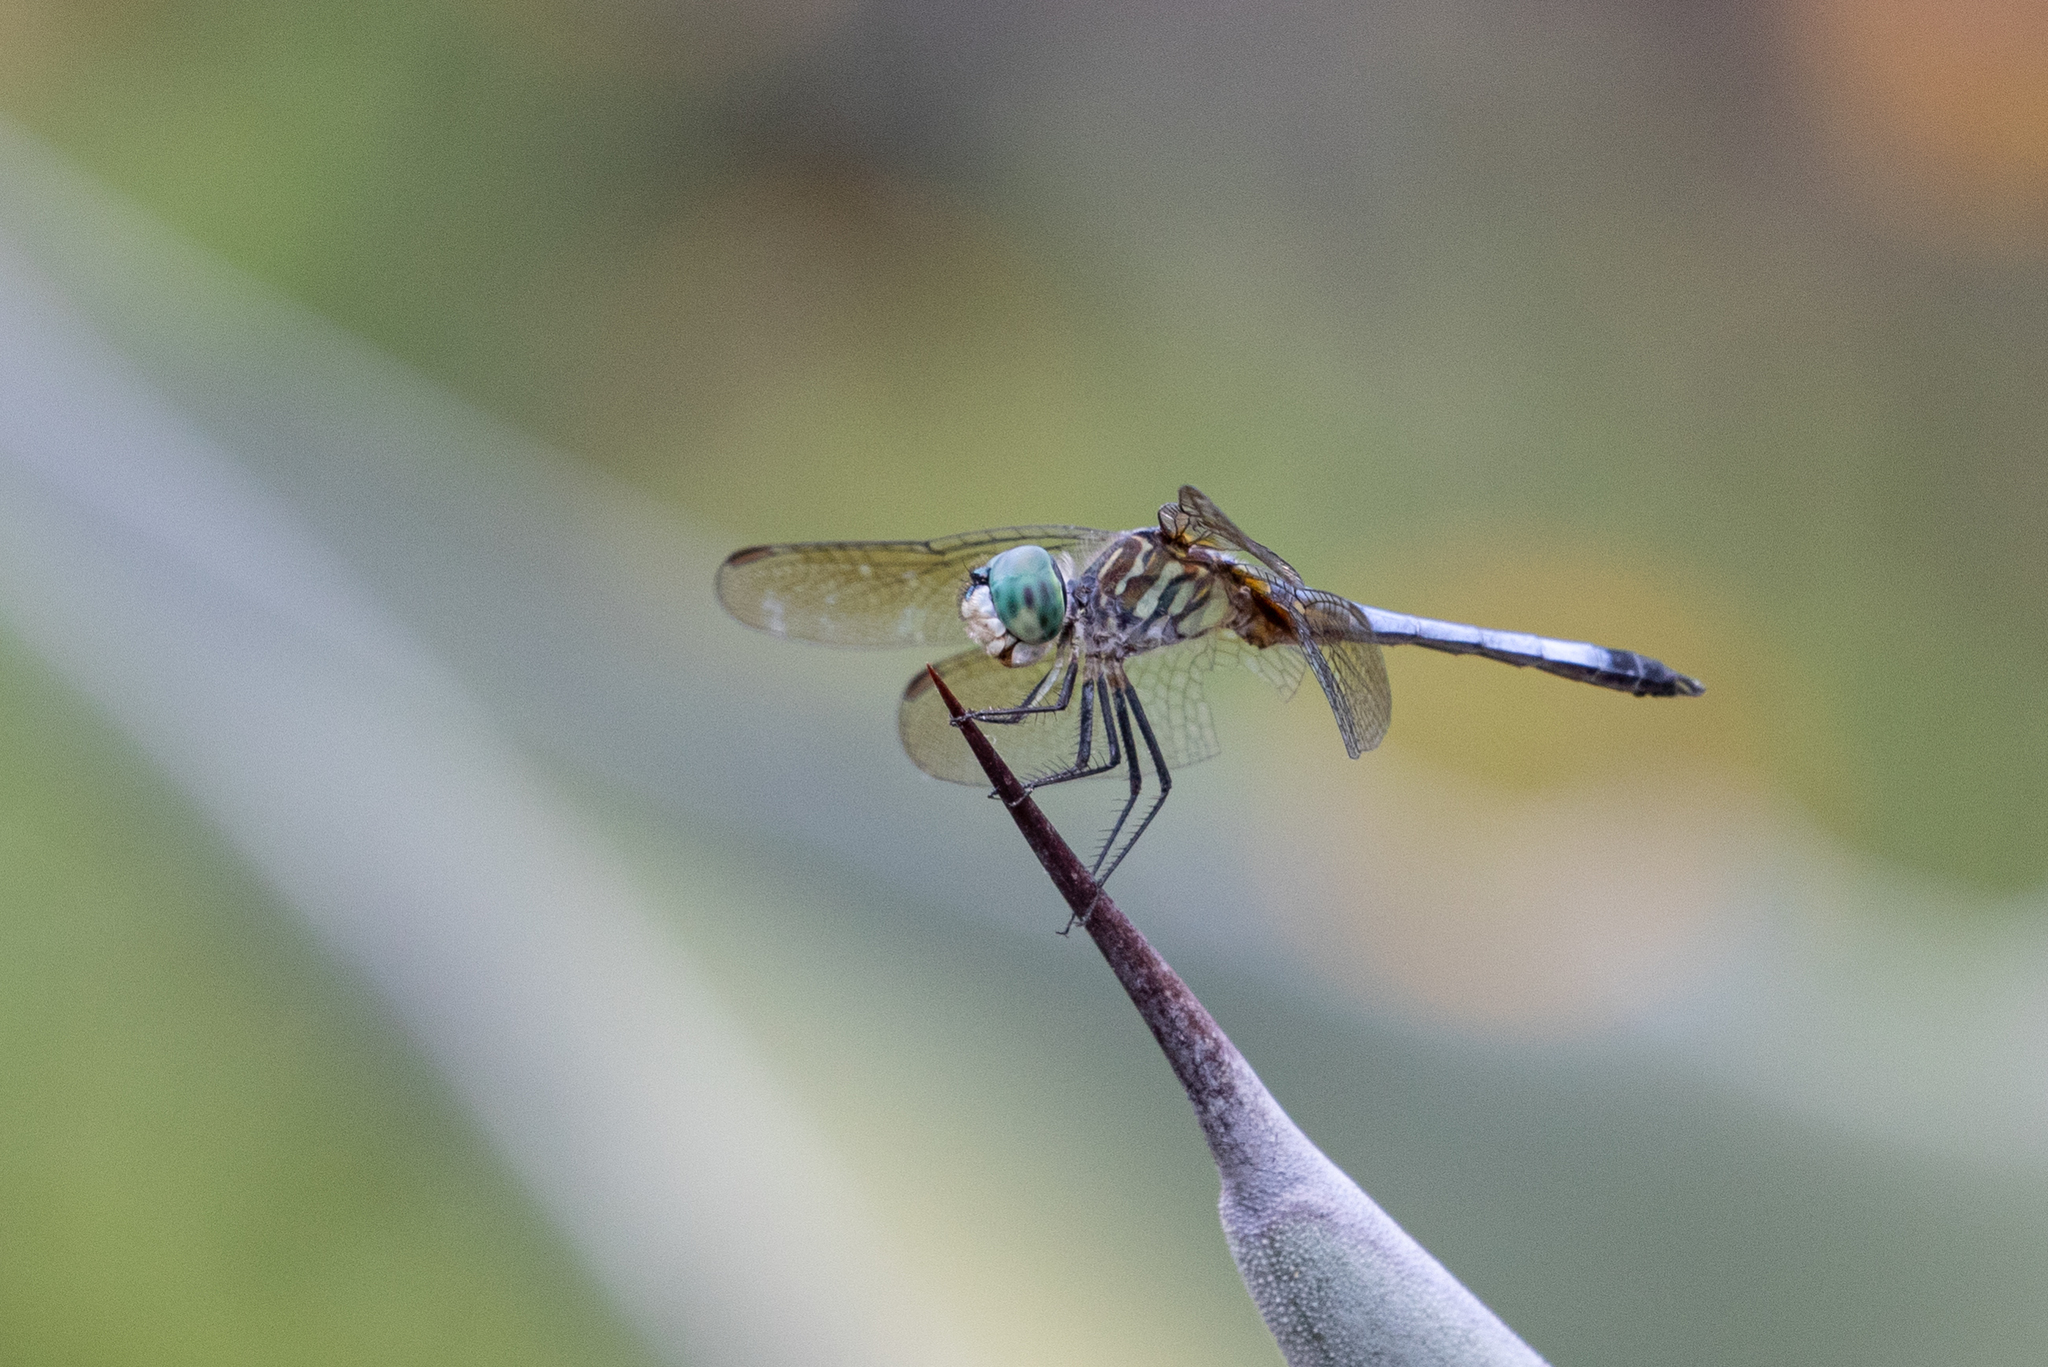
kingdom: Animalia
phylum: Arthropoda
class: Insecta
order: Odonata
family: Libellulidae
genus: Pachydiplax
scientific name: Pachydiplax longipennis
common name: Blue dasher
